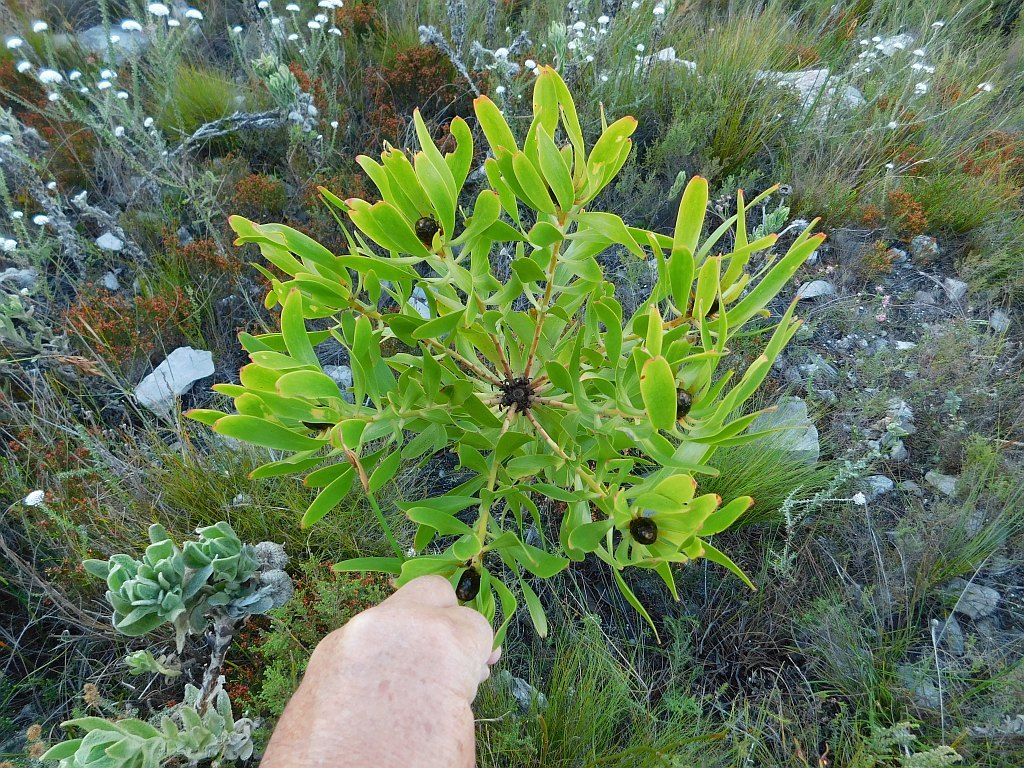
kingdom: Plantae
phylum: Tracheophyta
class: Magnoliopsida
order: Proteales
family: Proteaceae
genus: Leucadendron
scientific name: Leucadendron microcephalum
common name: Oilbract conebush
